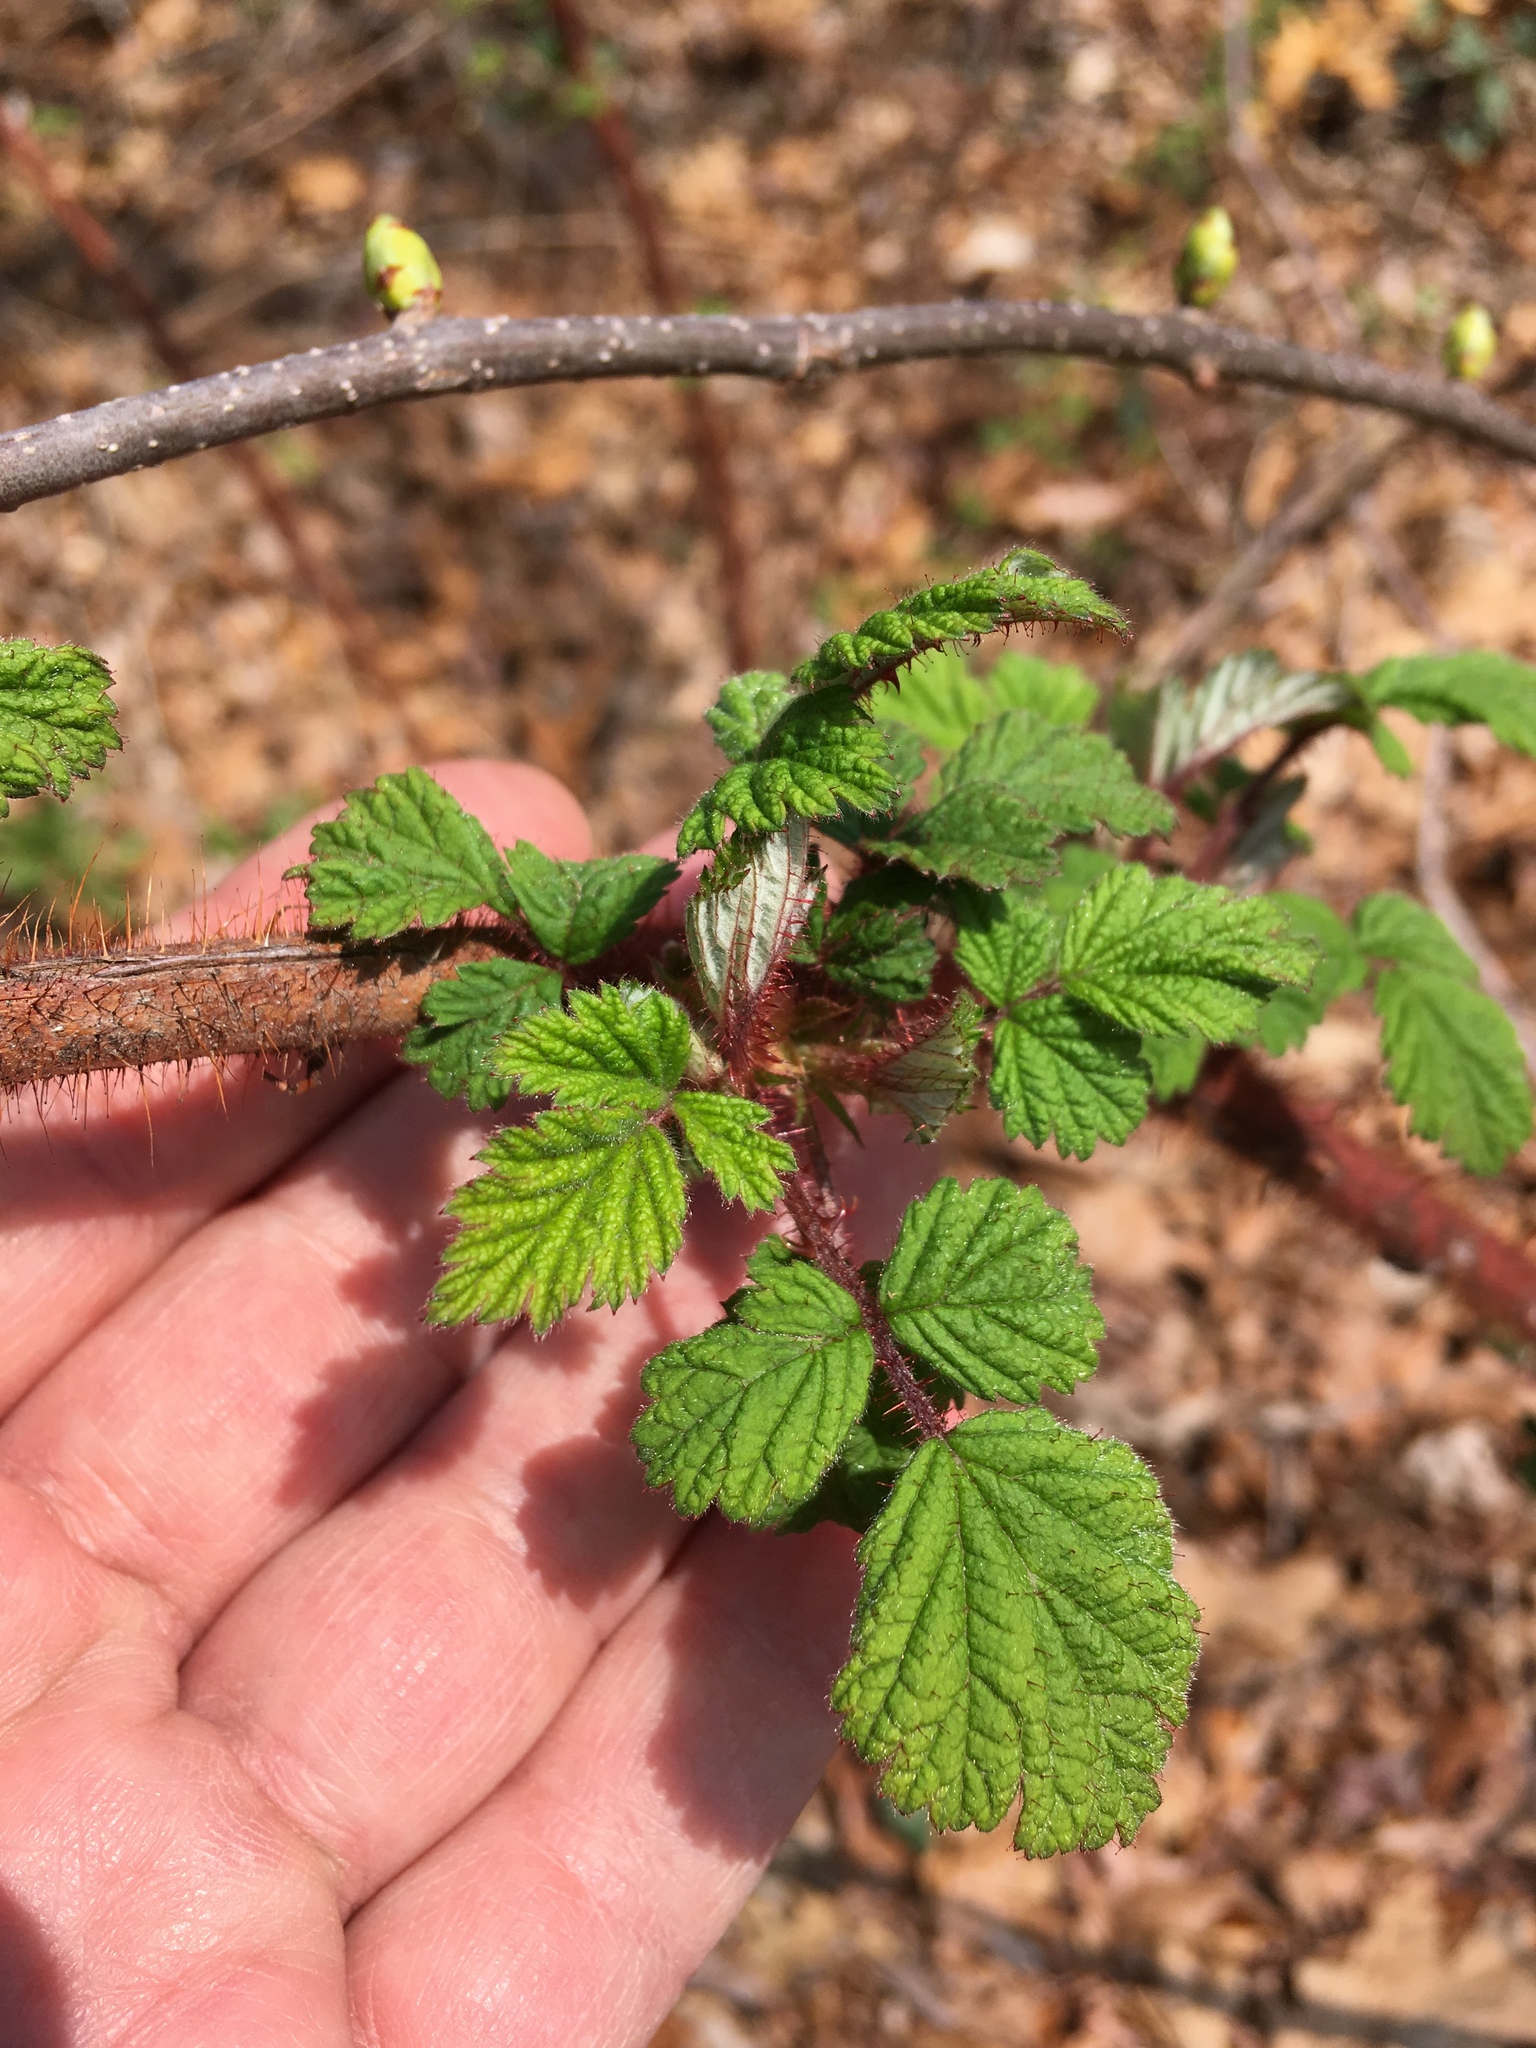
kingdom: Plantae
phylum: Tracheophyta
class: Magnoliopsida
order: Rosales
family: Rosaceae
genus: Rubus
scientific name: Rubus phoenicolasius
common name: Japanese wineberry
